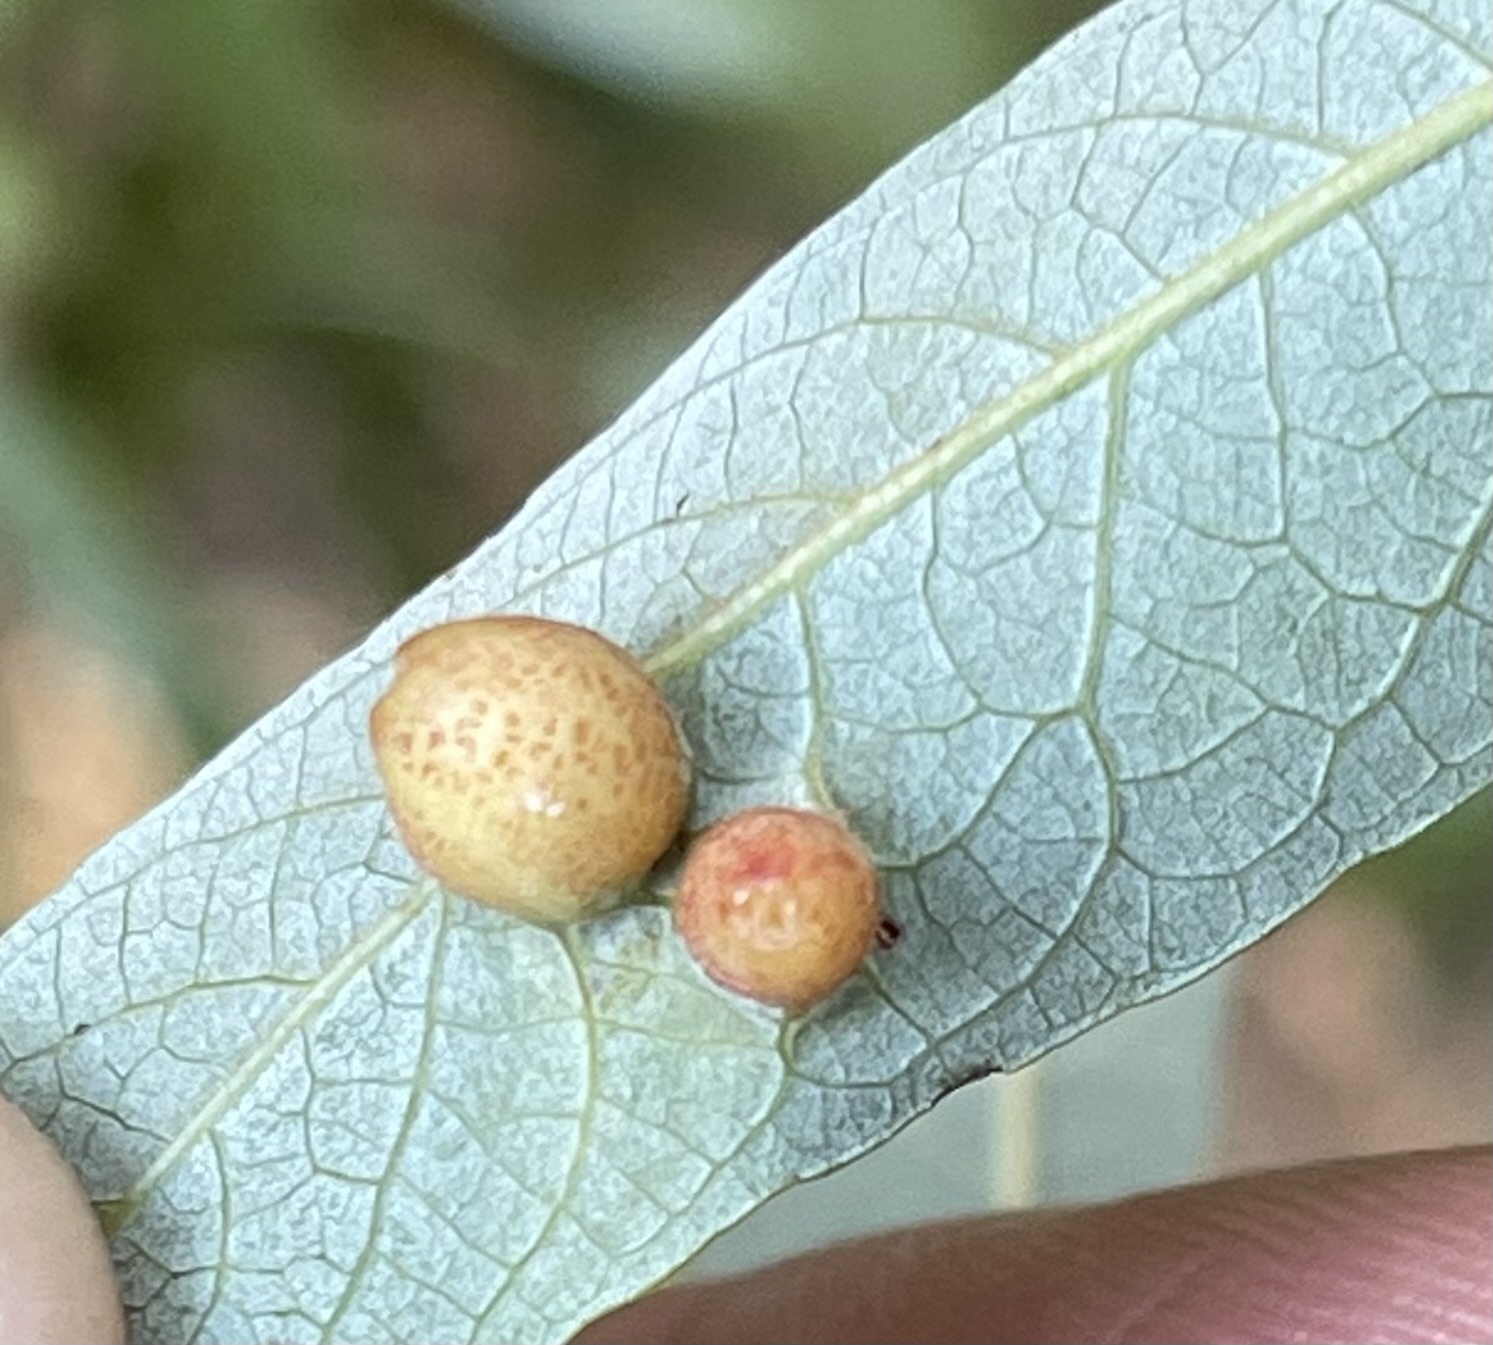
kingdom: Animalia
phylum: Arthropoda
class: Insecta
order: Hymenoptera
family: Tenthredinidae
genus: Euura
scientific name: Euura
